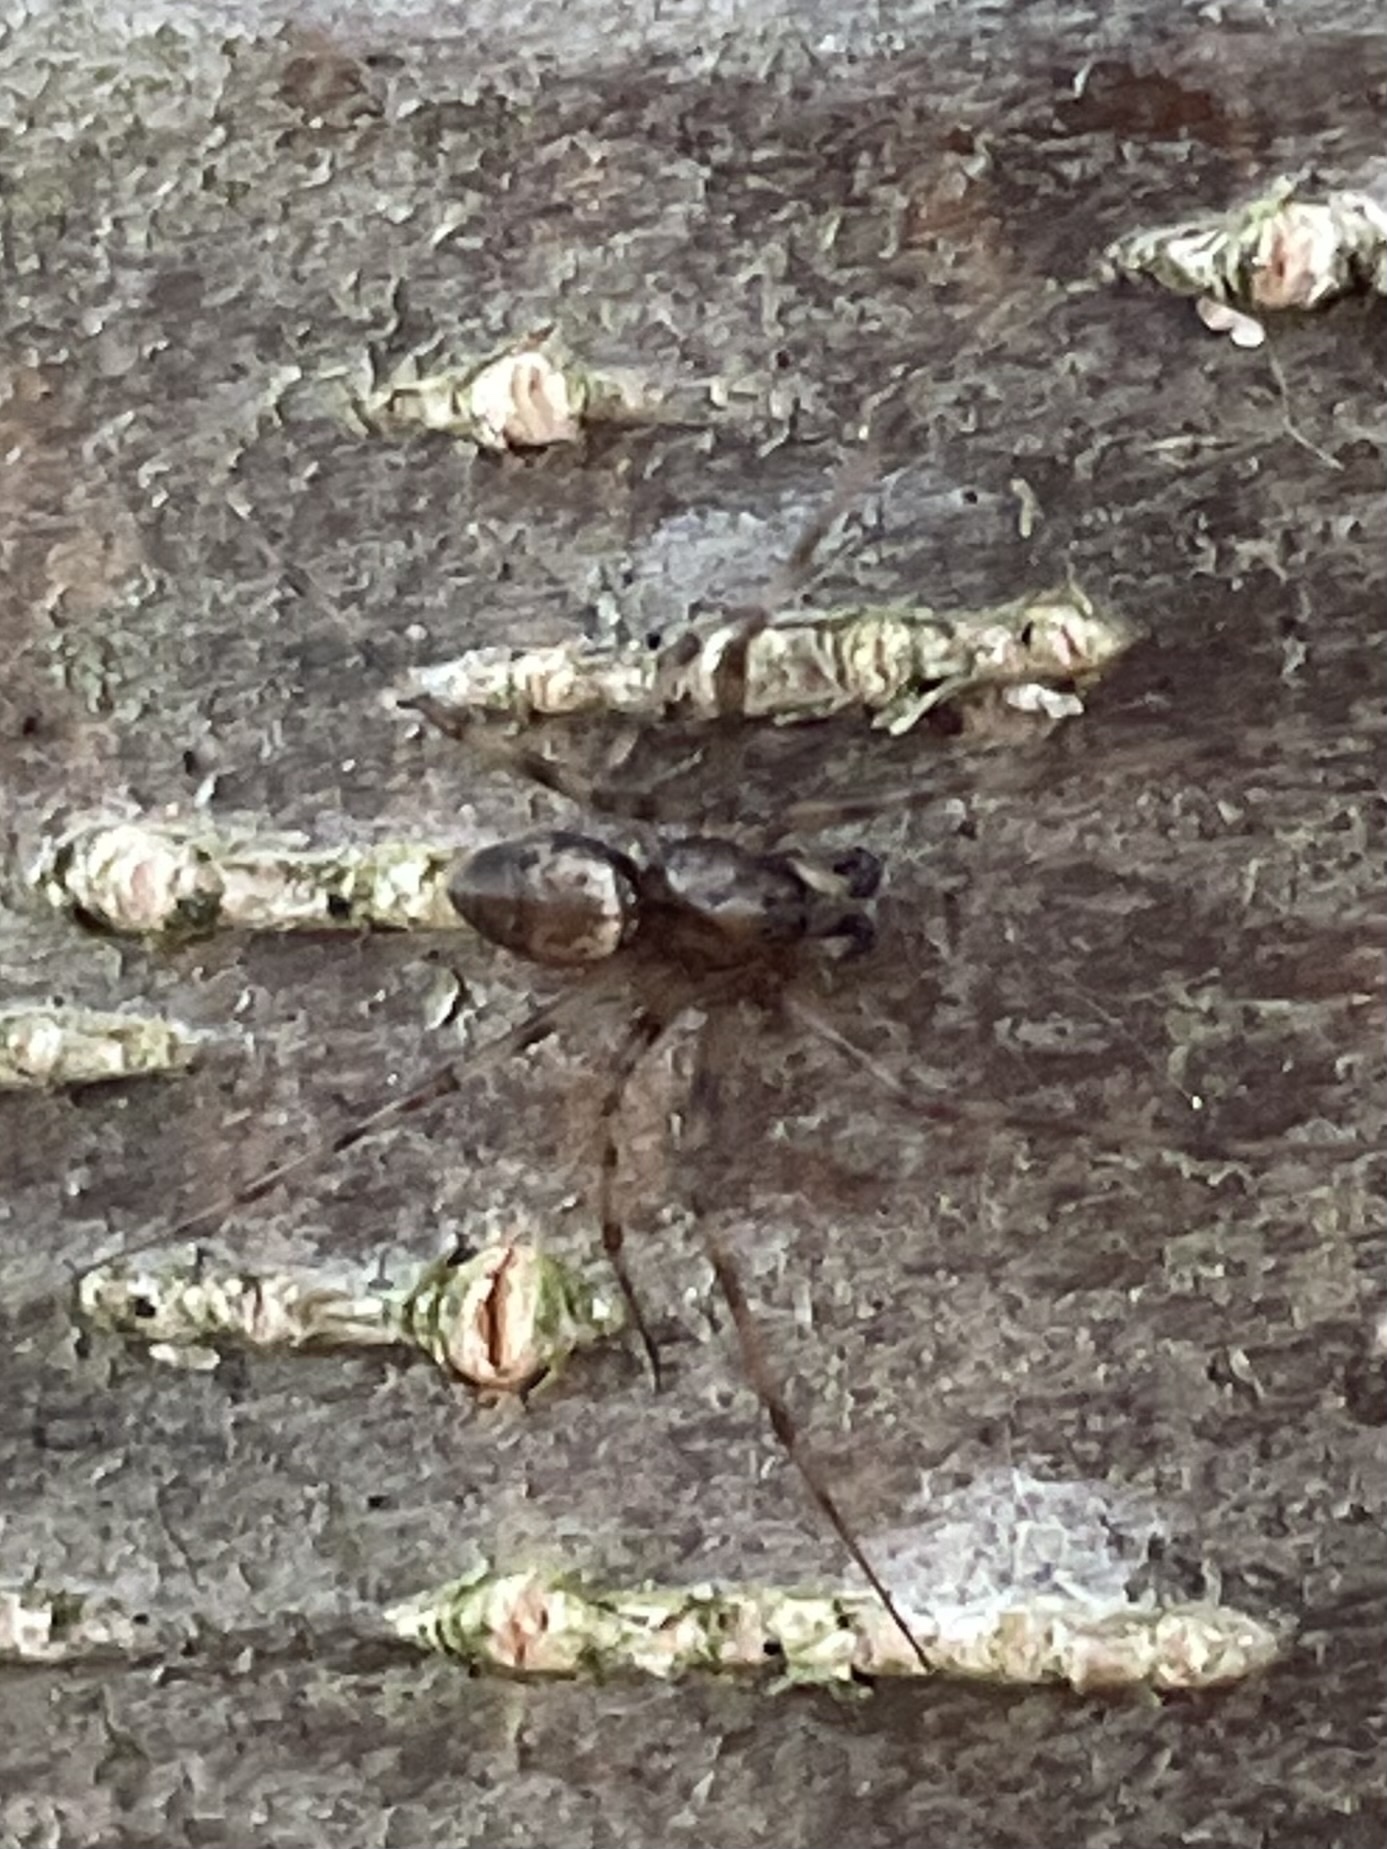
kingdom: Animalia
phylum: Arthropoda
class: Arachnida
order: Araneae
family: Linyphiidae
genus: Drapetisca
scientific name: Drapetisca socialis
